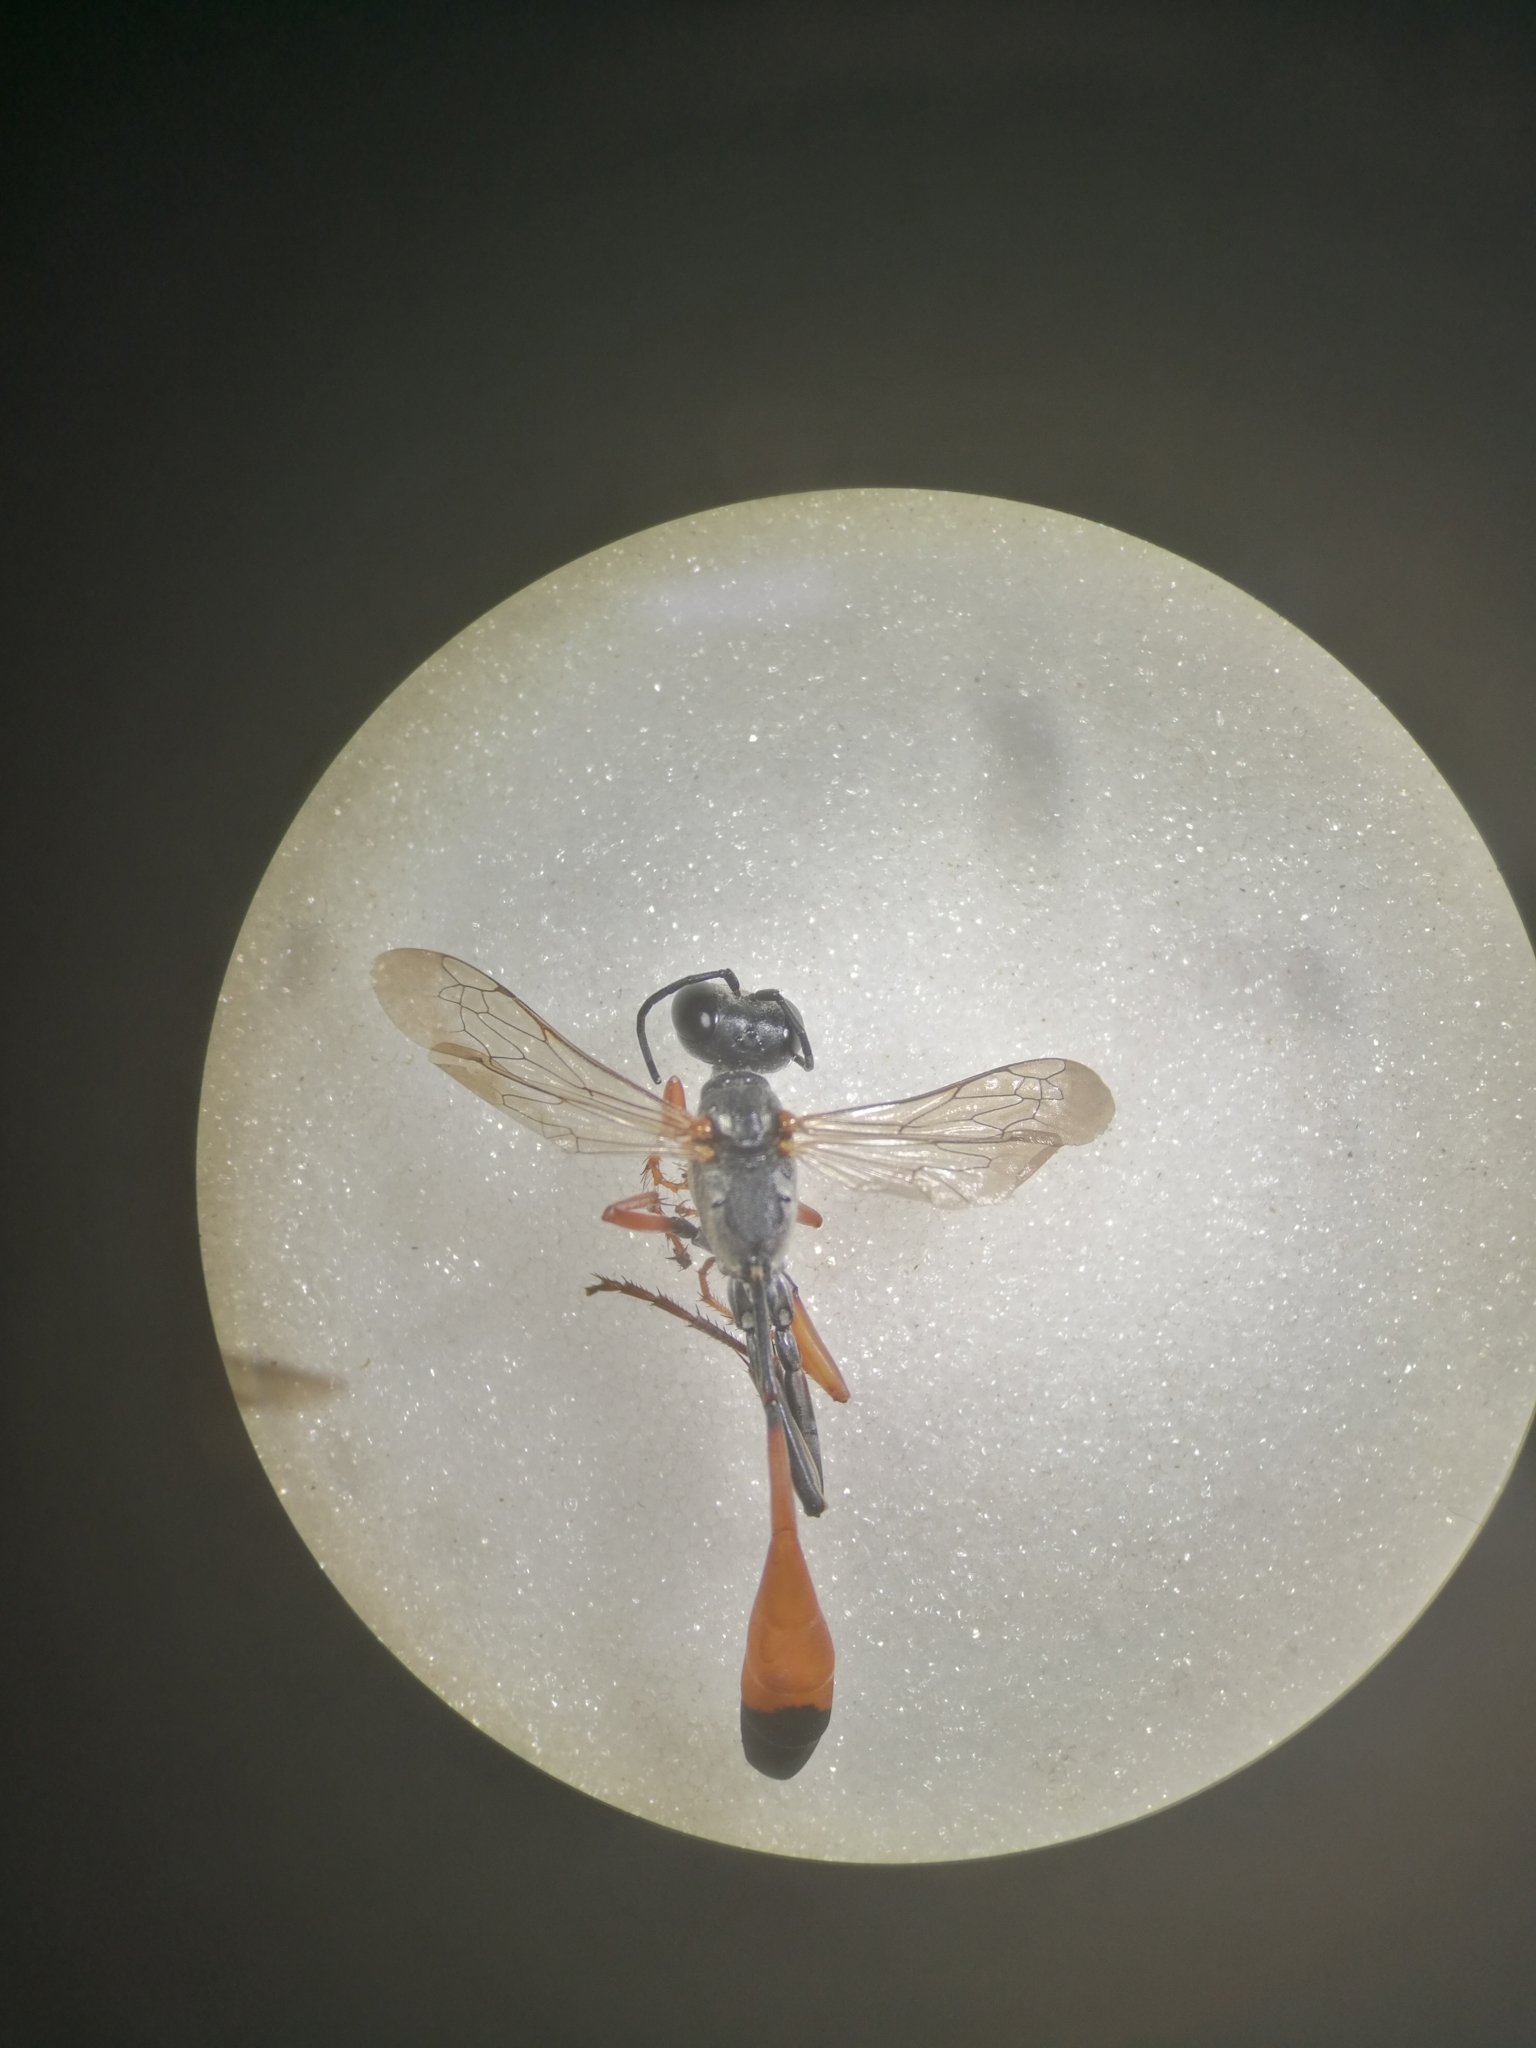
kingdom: Animalia
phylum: Arthropoda
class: Insecta
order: Hymenoptera
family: Sphecidae
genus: Ammophila
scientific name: Ammophila heydeni
